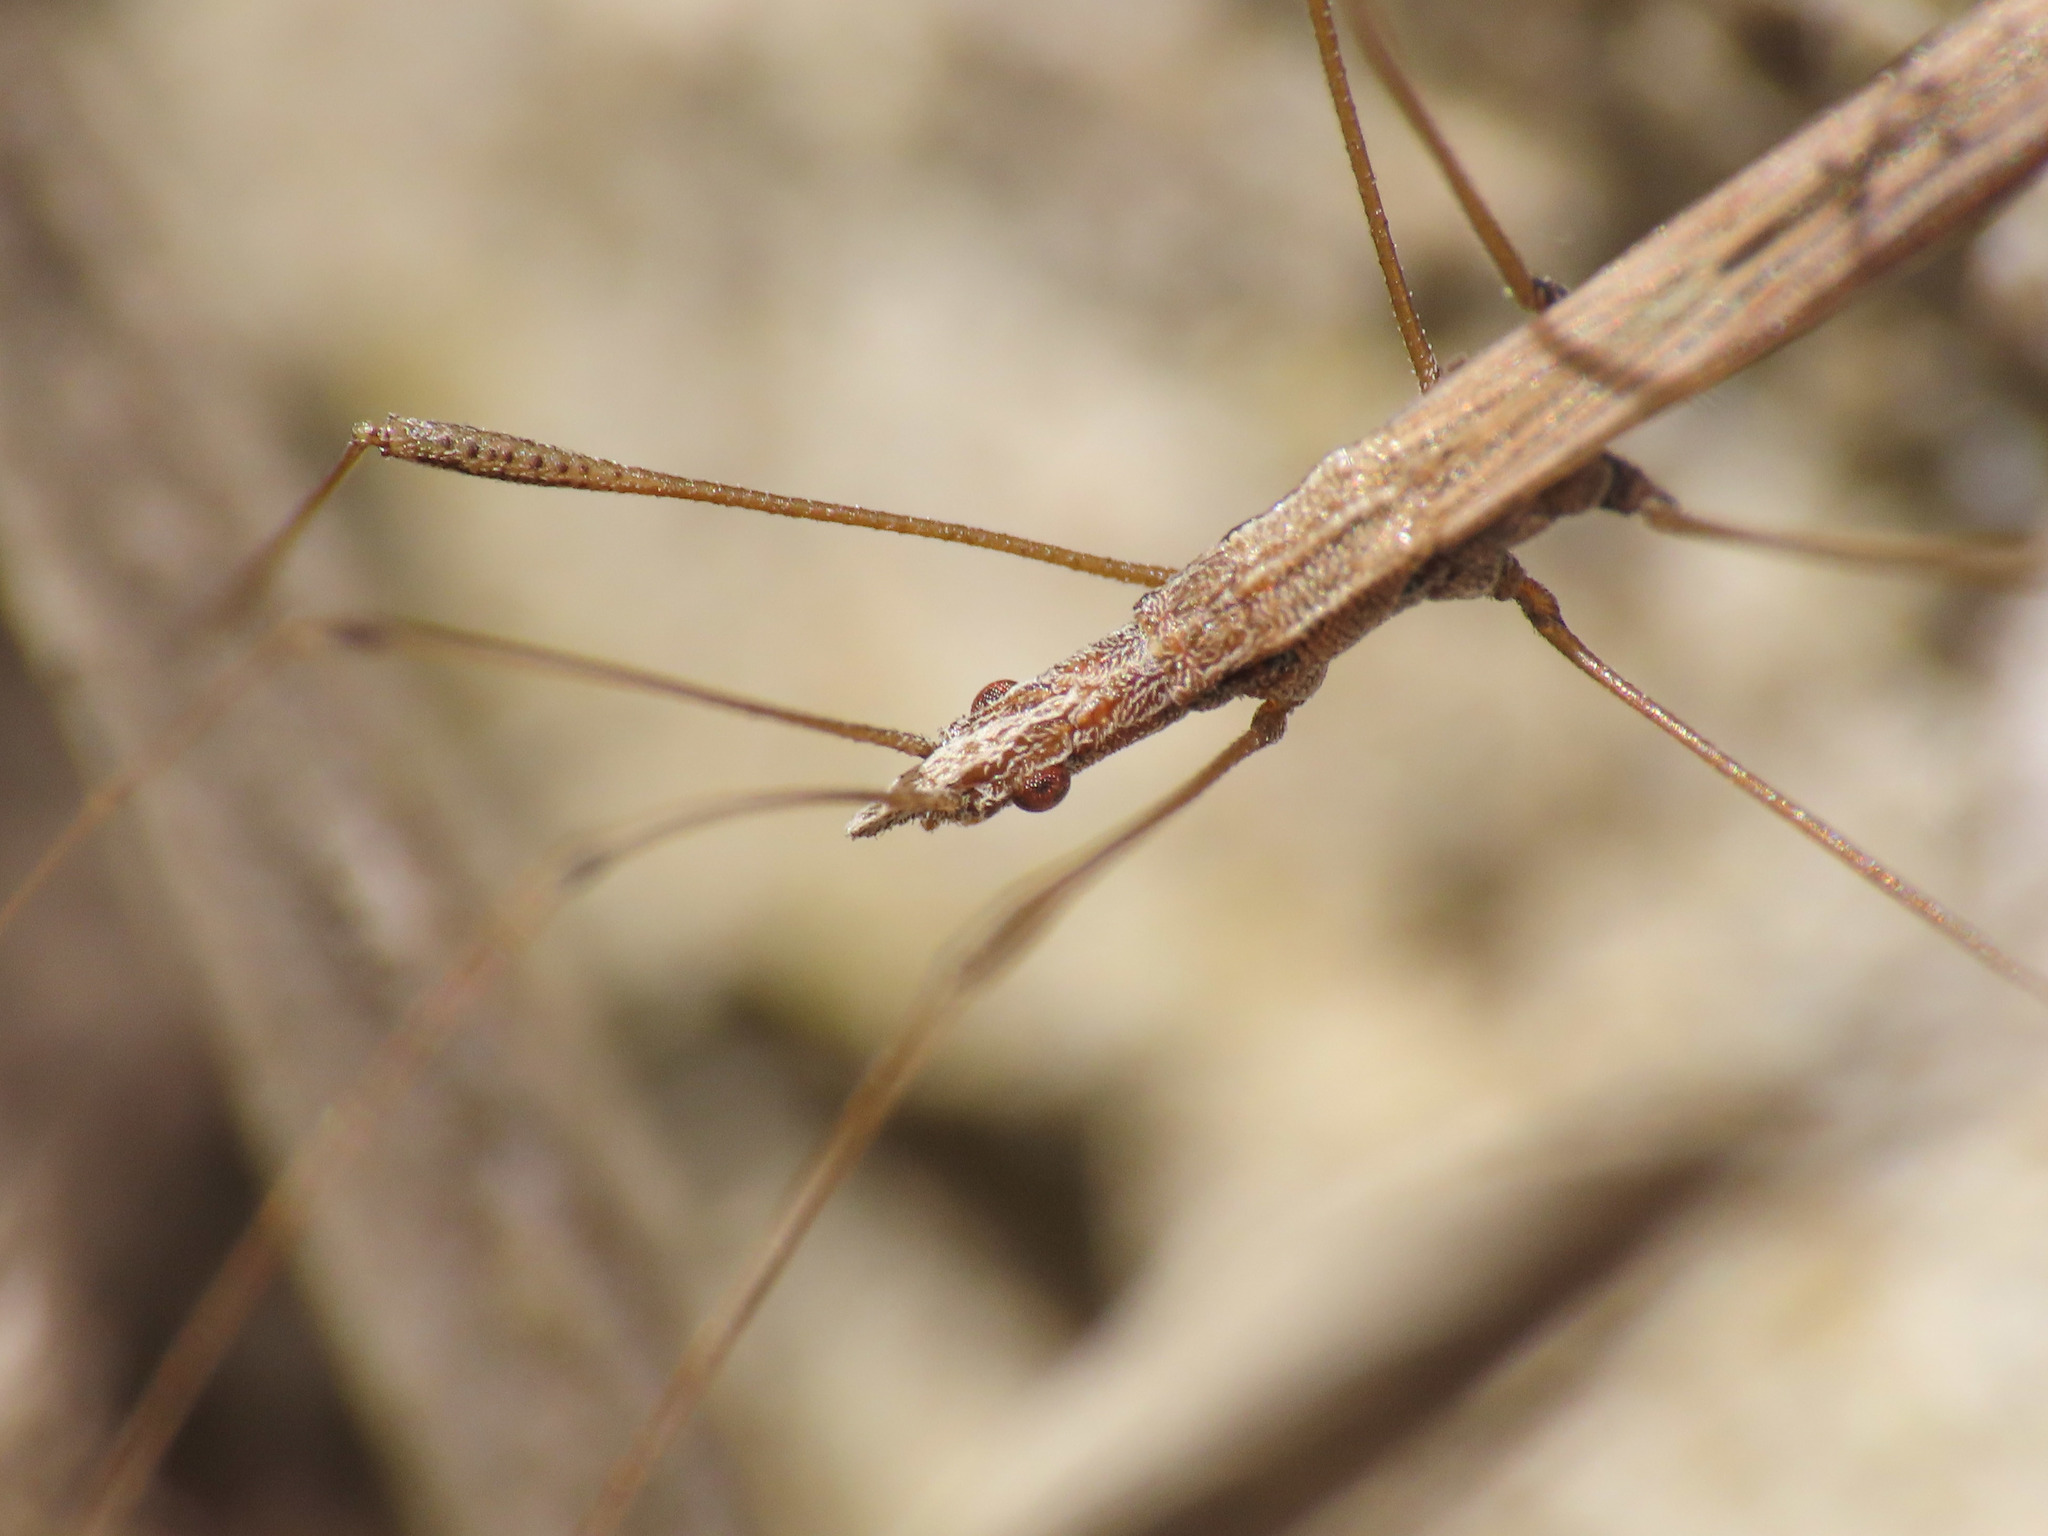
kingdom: Animalia
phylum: Arthropoda
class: Insecta
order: Hemiptera
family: Berytidae
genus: Neides
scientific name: Neides tipularius
